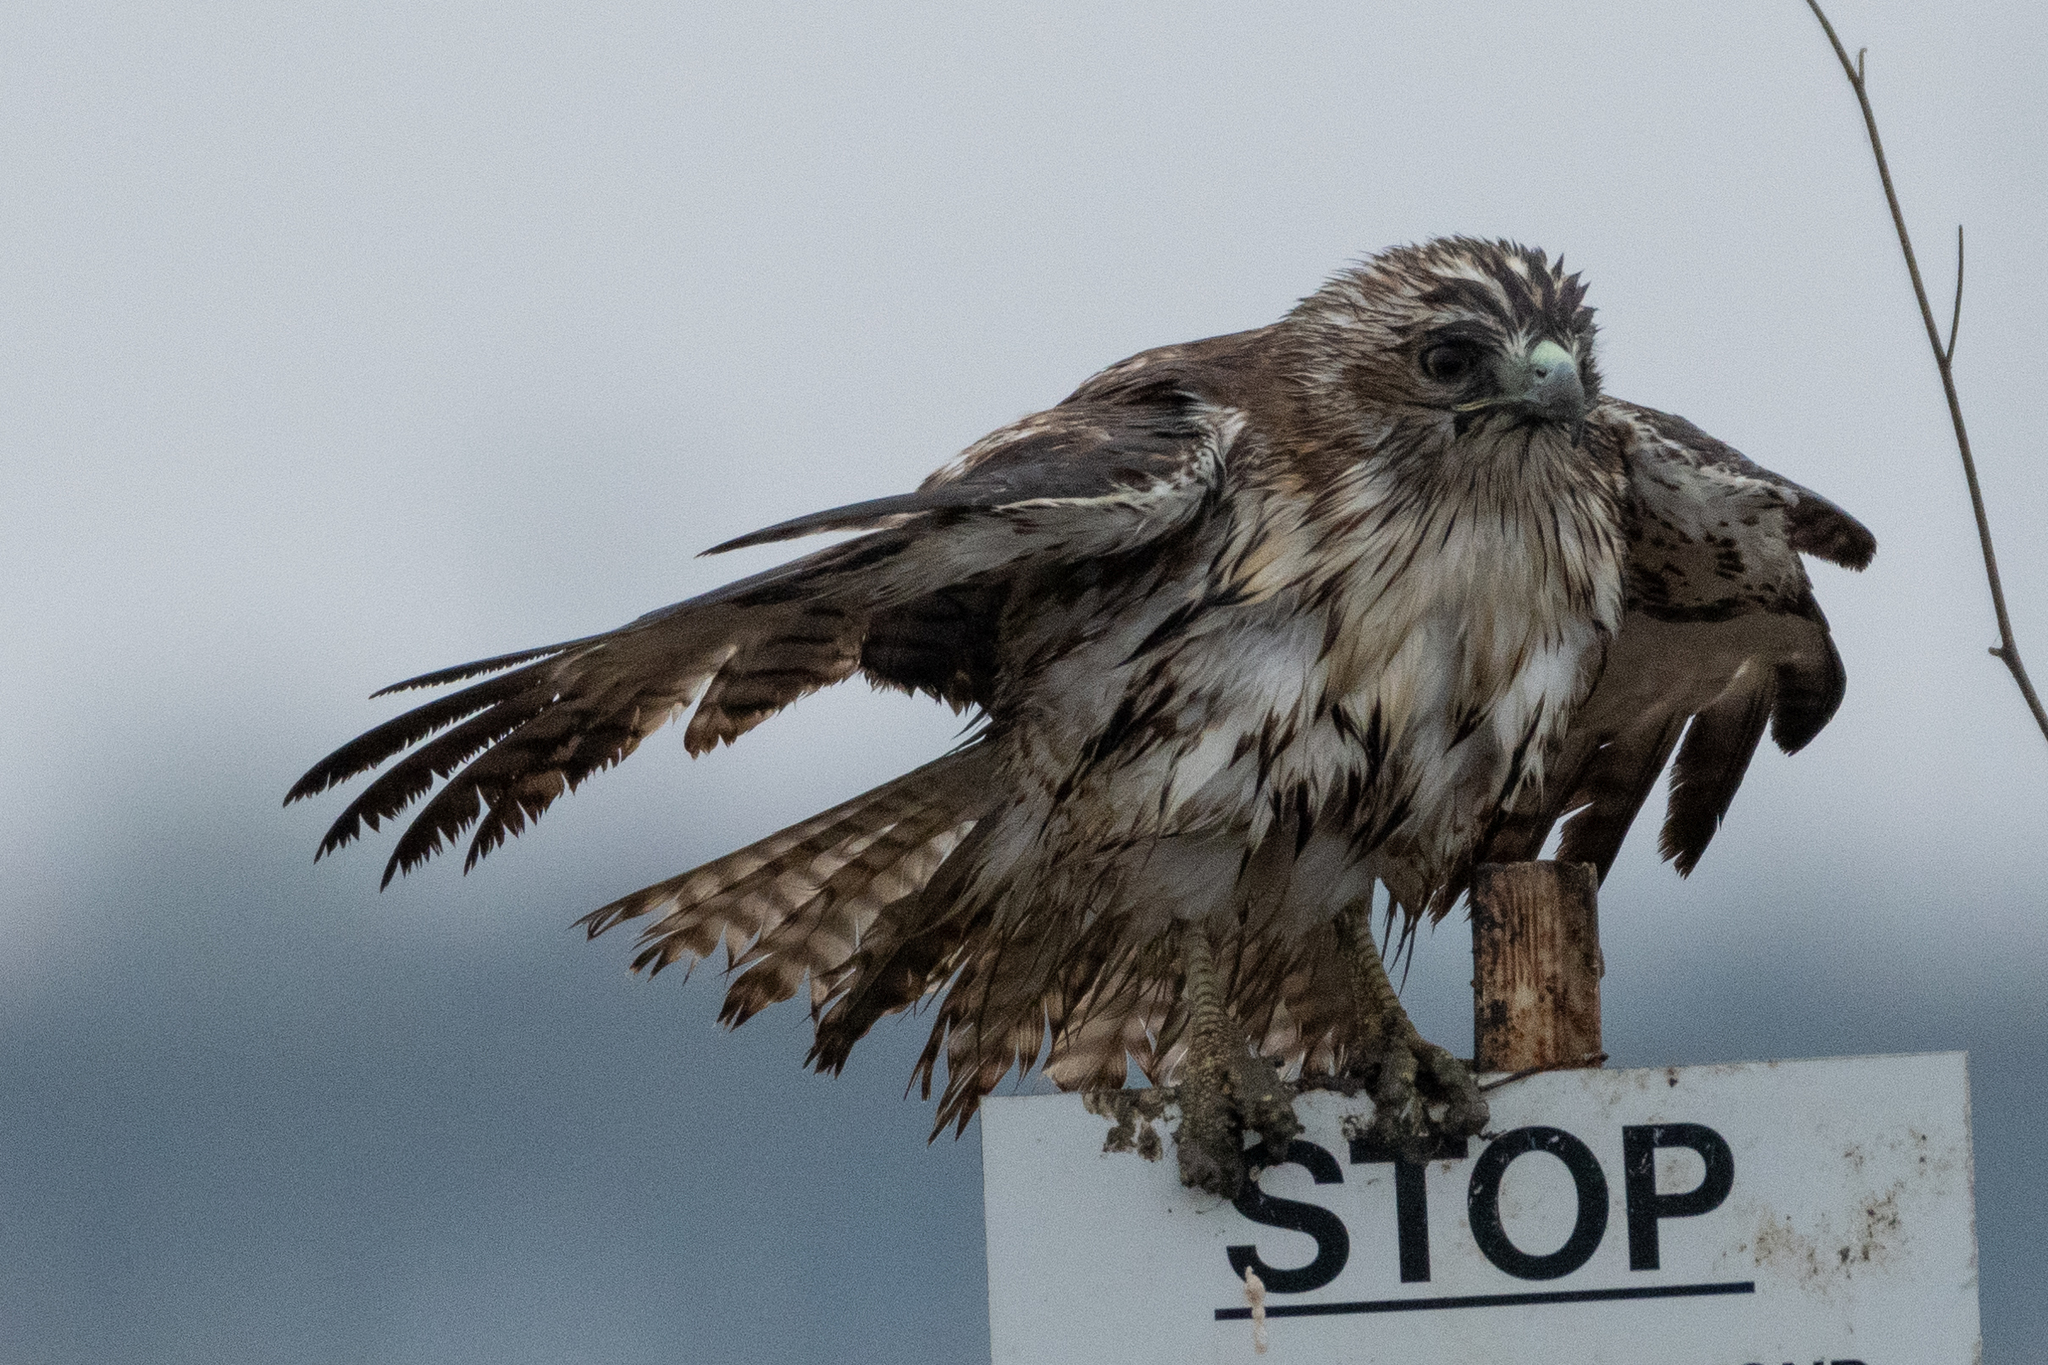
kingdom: Animalia
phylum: Chordata
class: Aves
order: Accipitriformes
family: Accipitridae
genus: Buteo
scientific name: Buteo jamaicensis
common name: Red-tailed hawk
